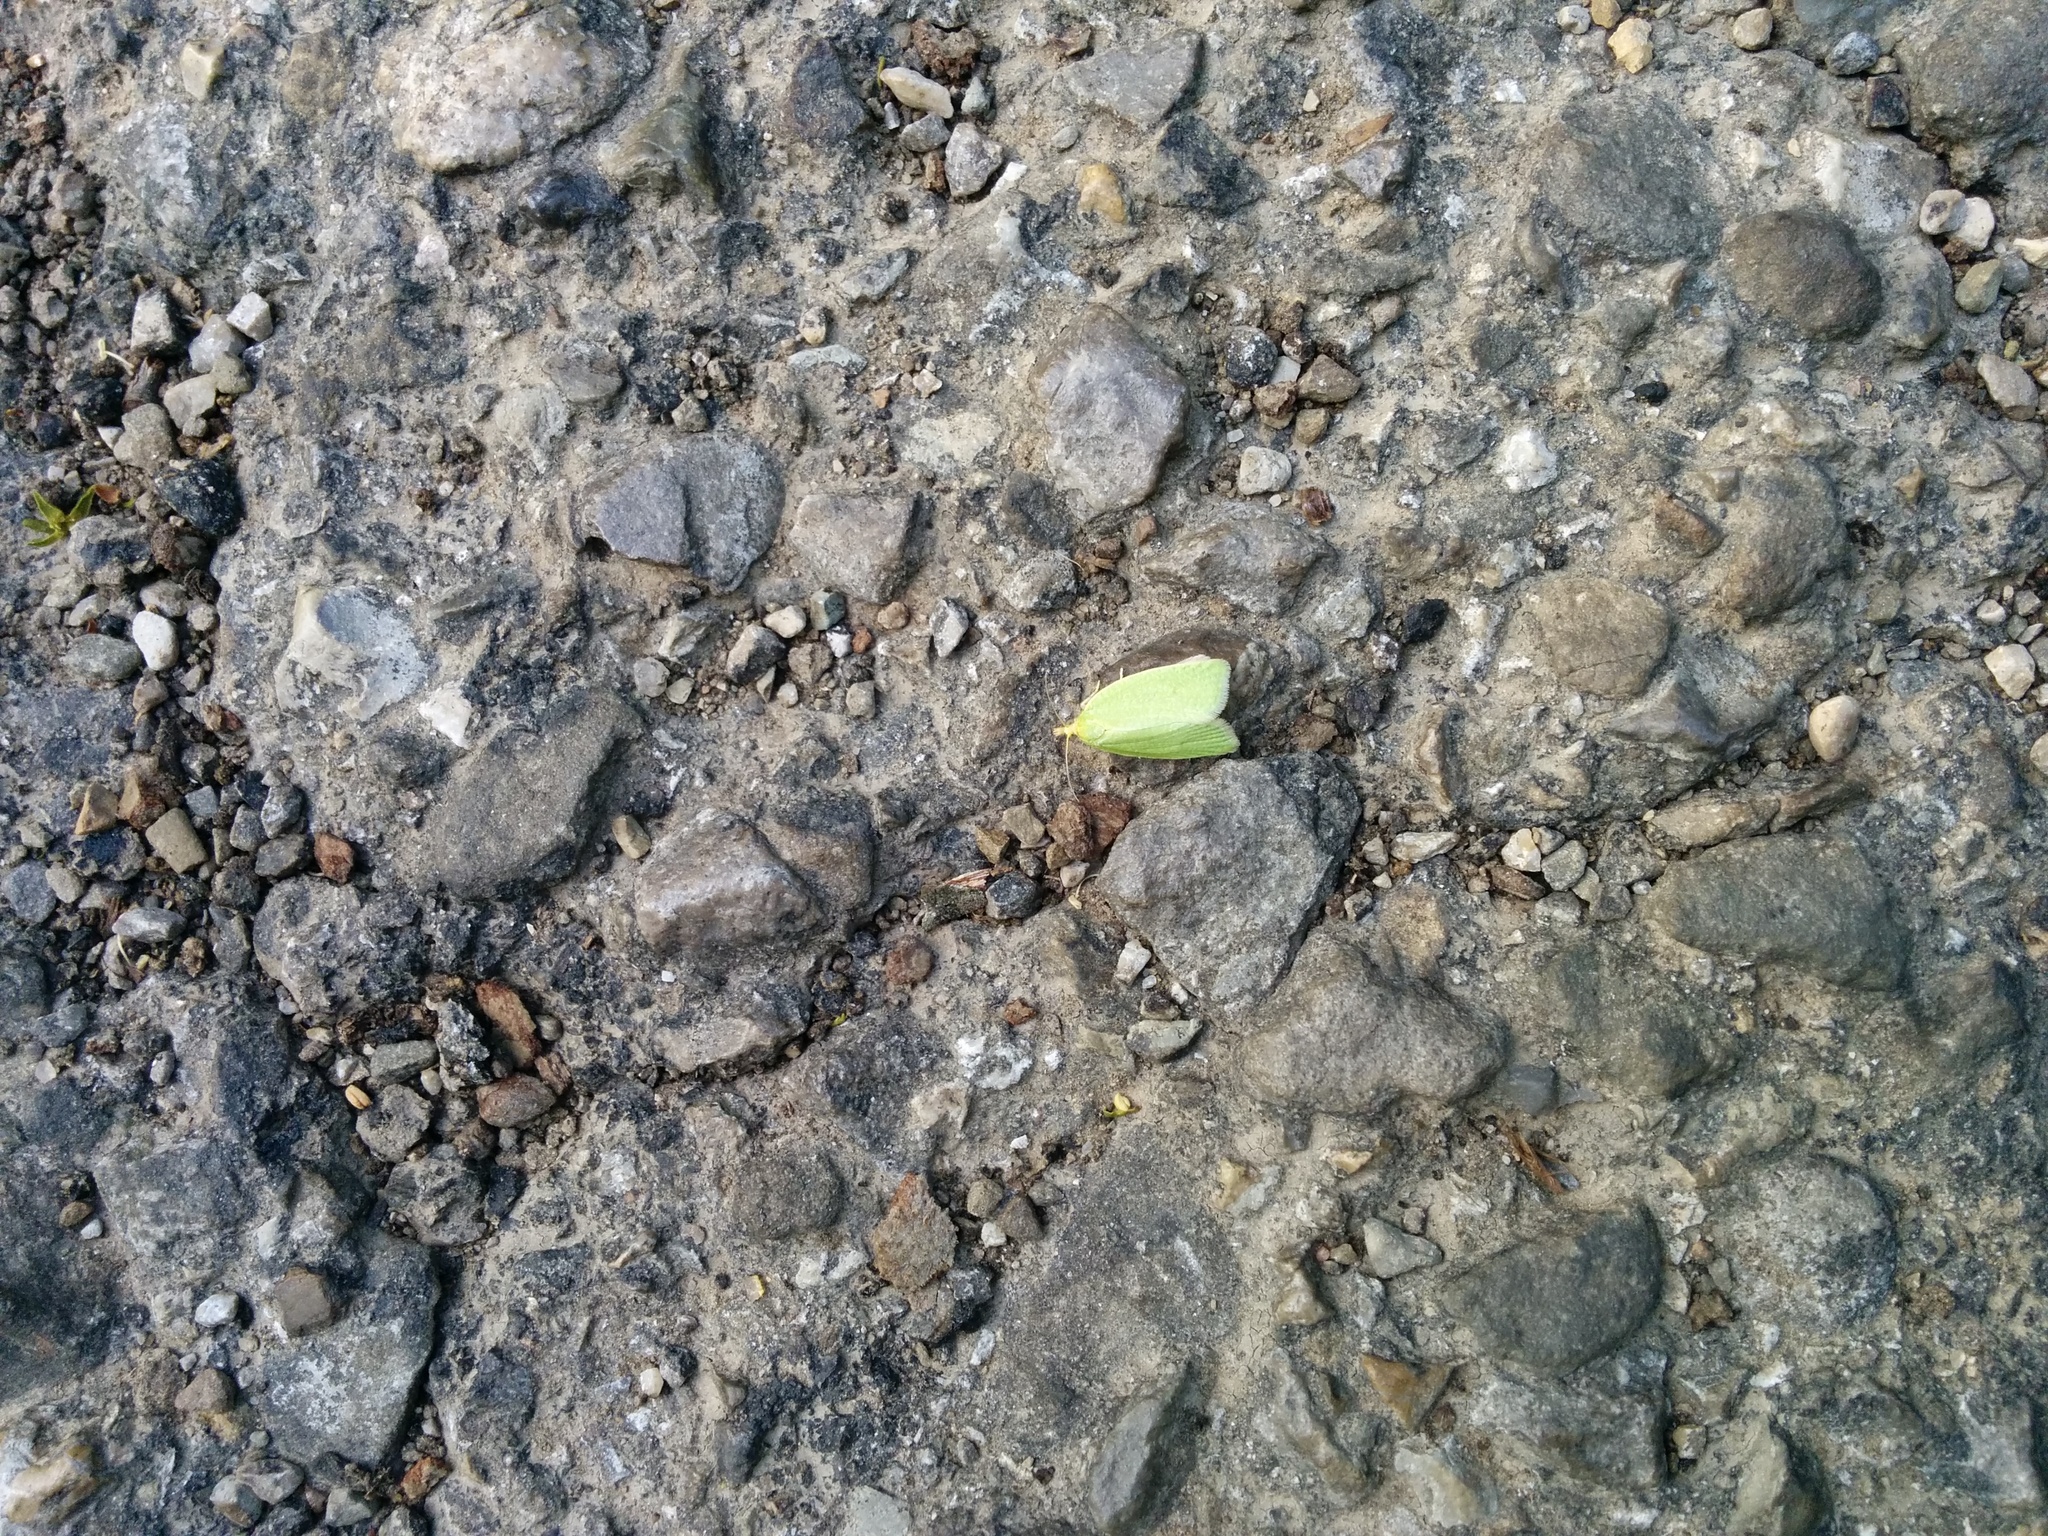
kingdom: Animalia
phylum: Arthropoda
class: Insecta
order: Lepidoptera
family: Tortricidae
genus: Tortrix
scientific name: Tortrix viridana
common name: Green oak tortrix
